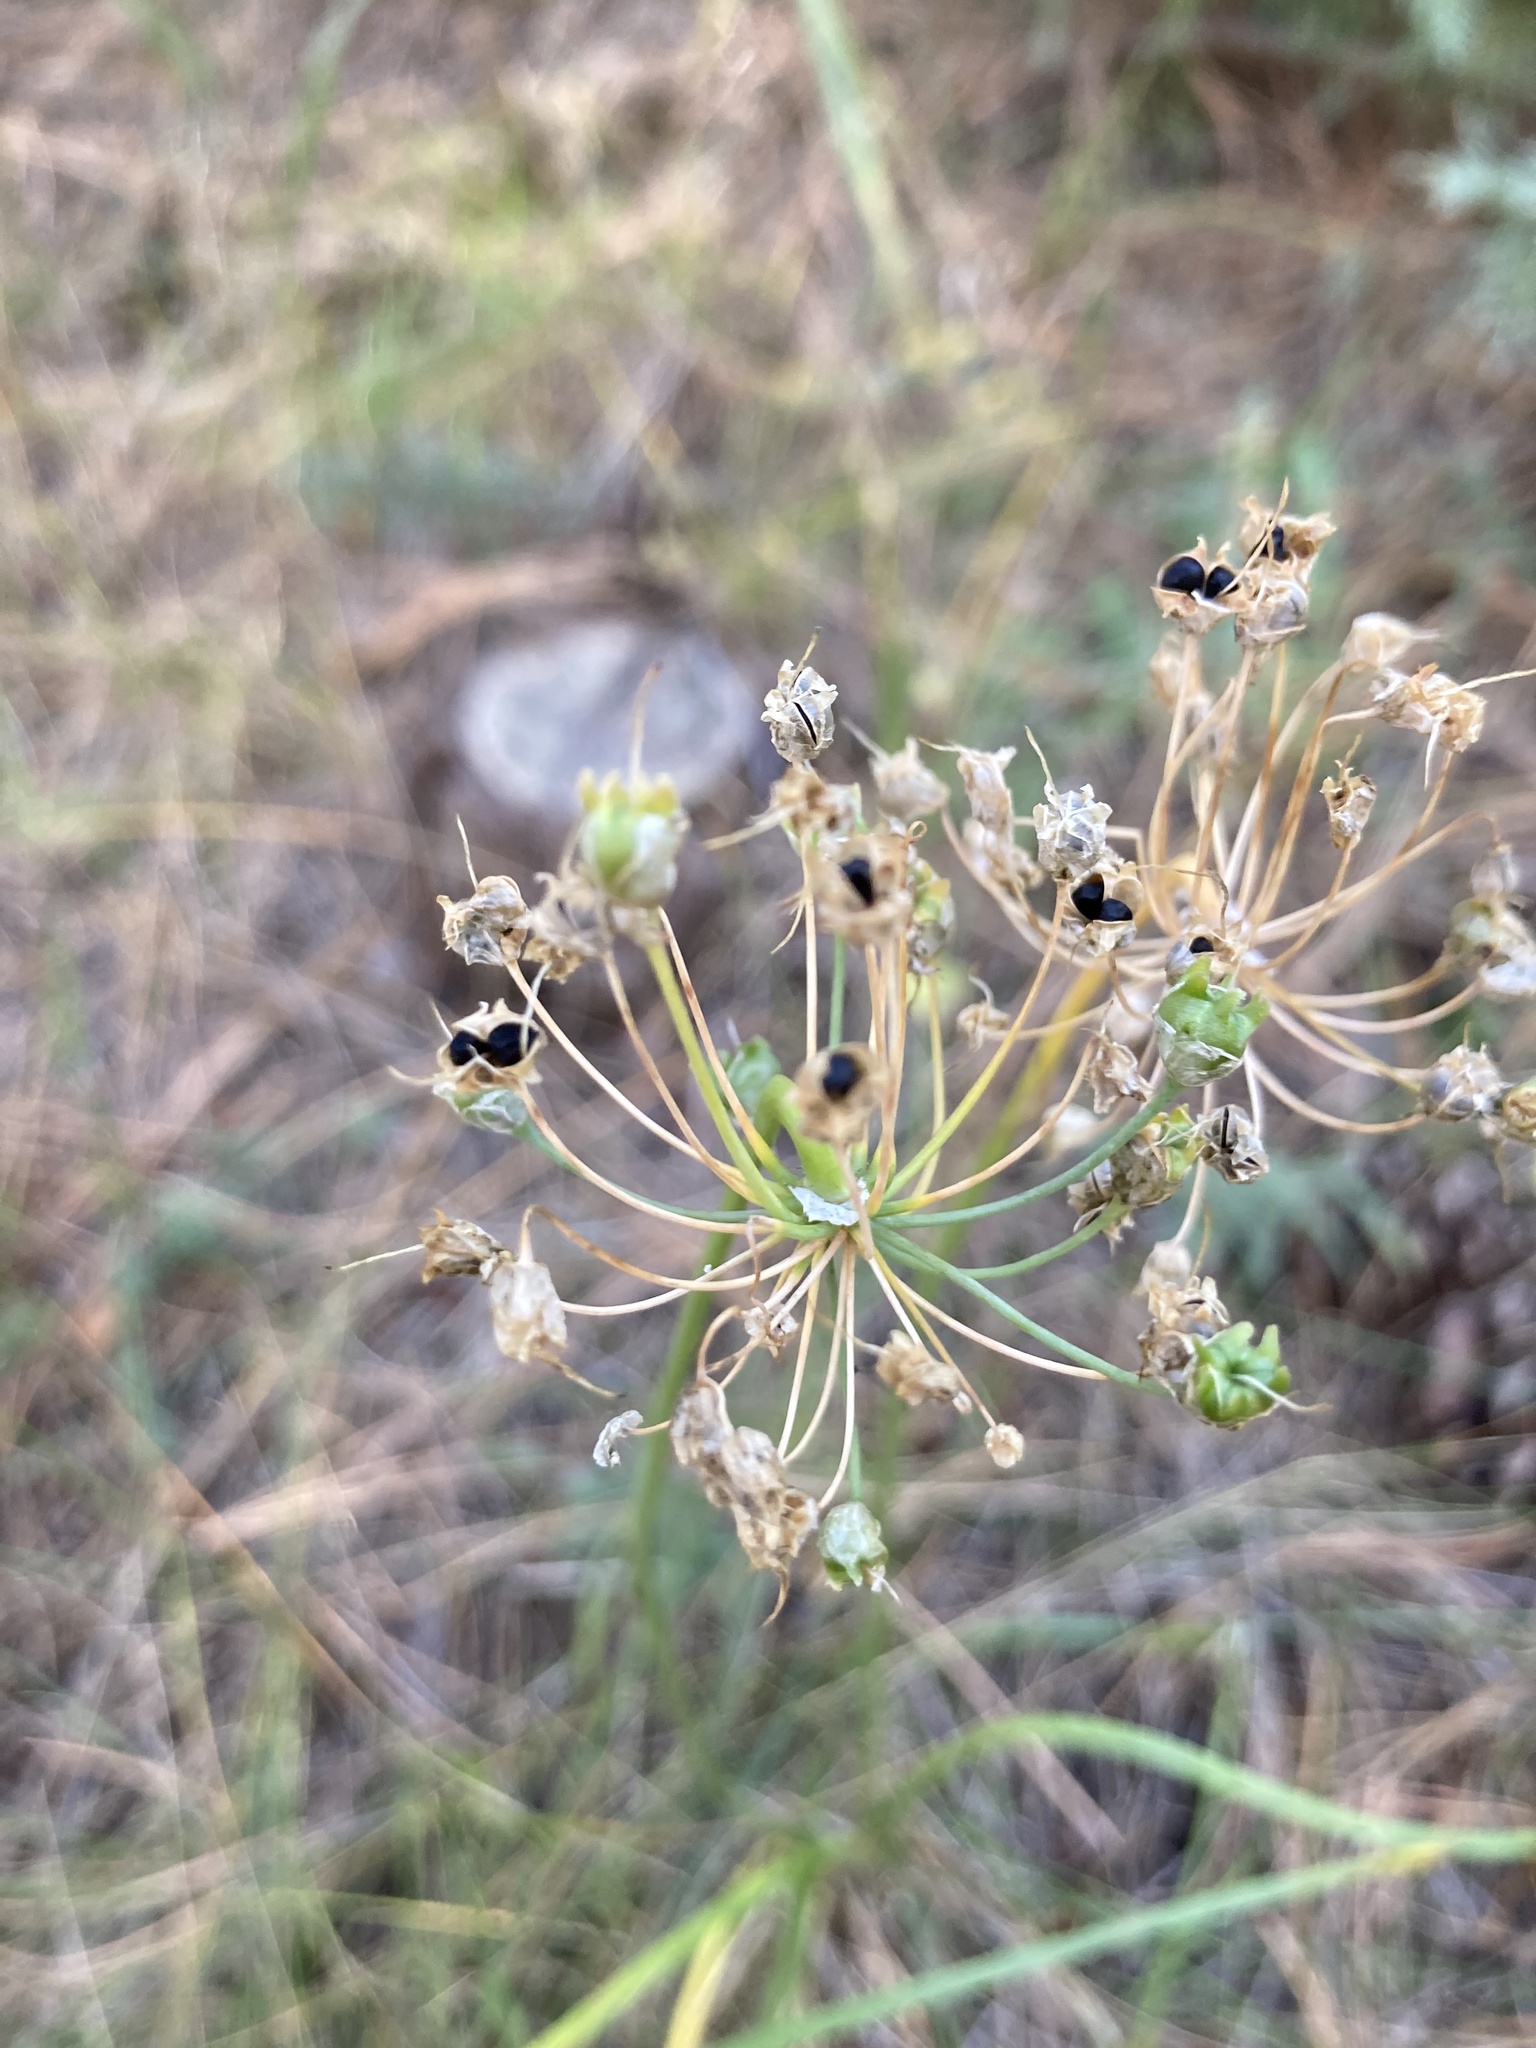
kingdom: Plantae
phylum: Tracheophyta
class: Liliopsida
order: Asparagales
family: Amaryllidaceae
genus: Allium
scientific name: Allium cernuum
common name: Nodding onion
